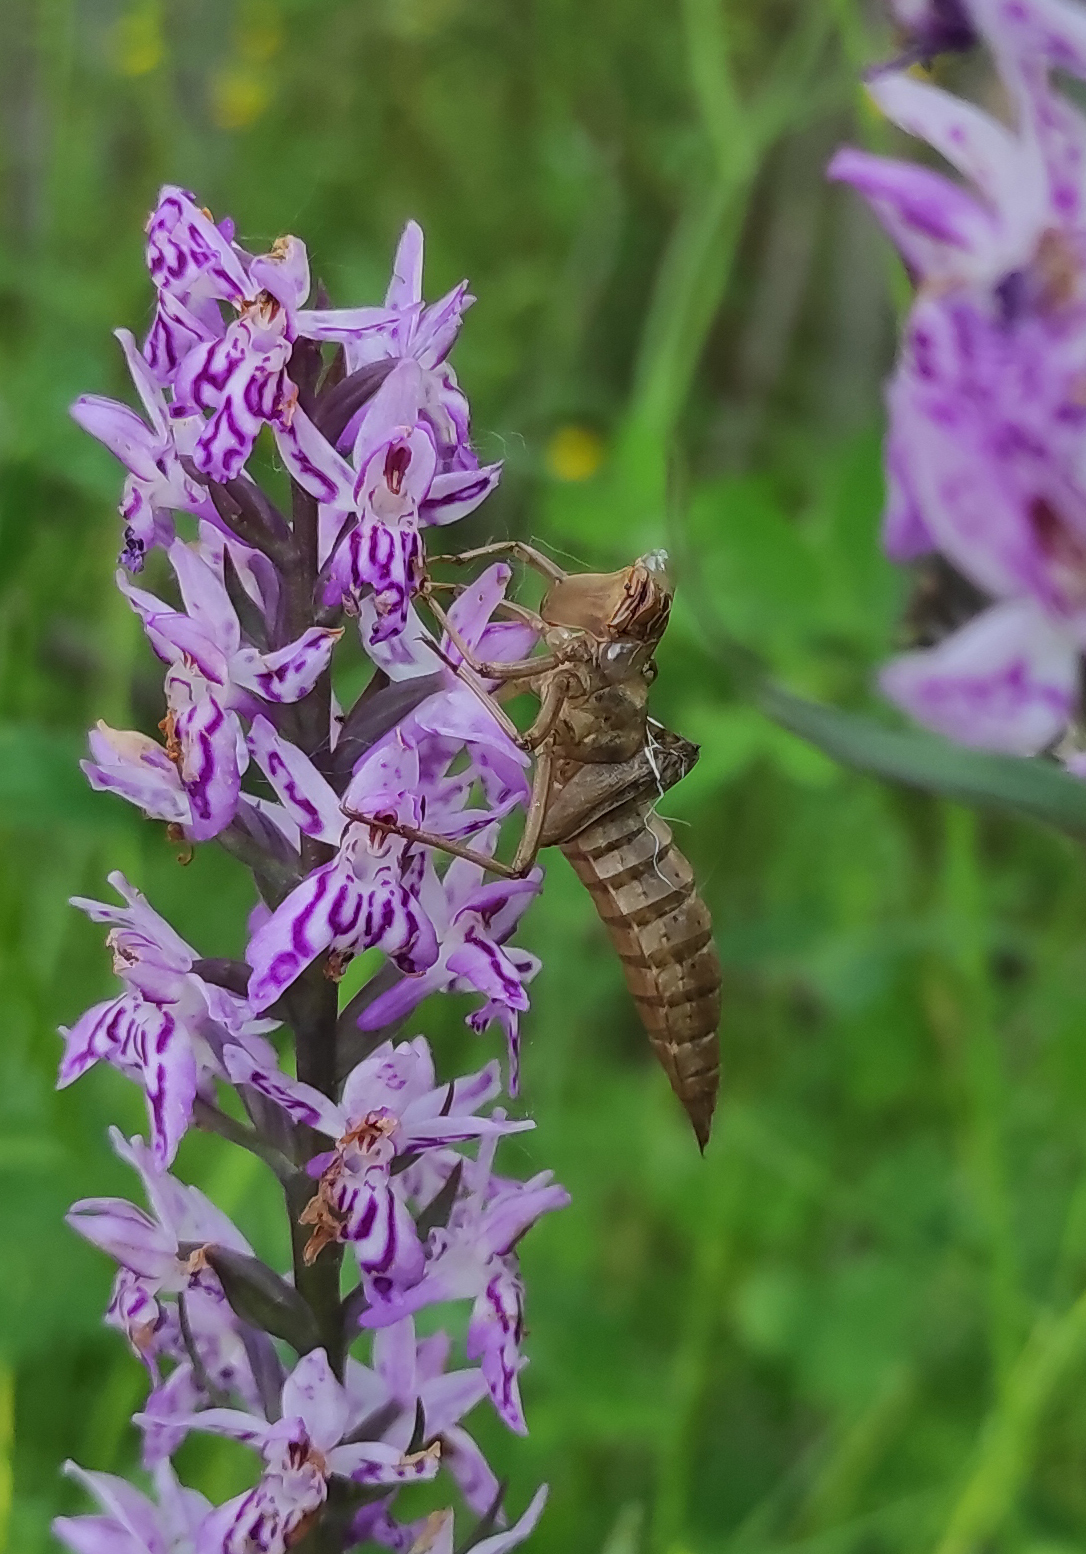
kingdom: Animalia
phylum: Arthropoda
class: Insecta
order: Odonata
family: Aeshnidae
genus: Aeshna
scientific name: Aeshna juncea
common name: Moorland hawker
